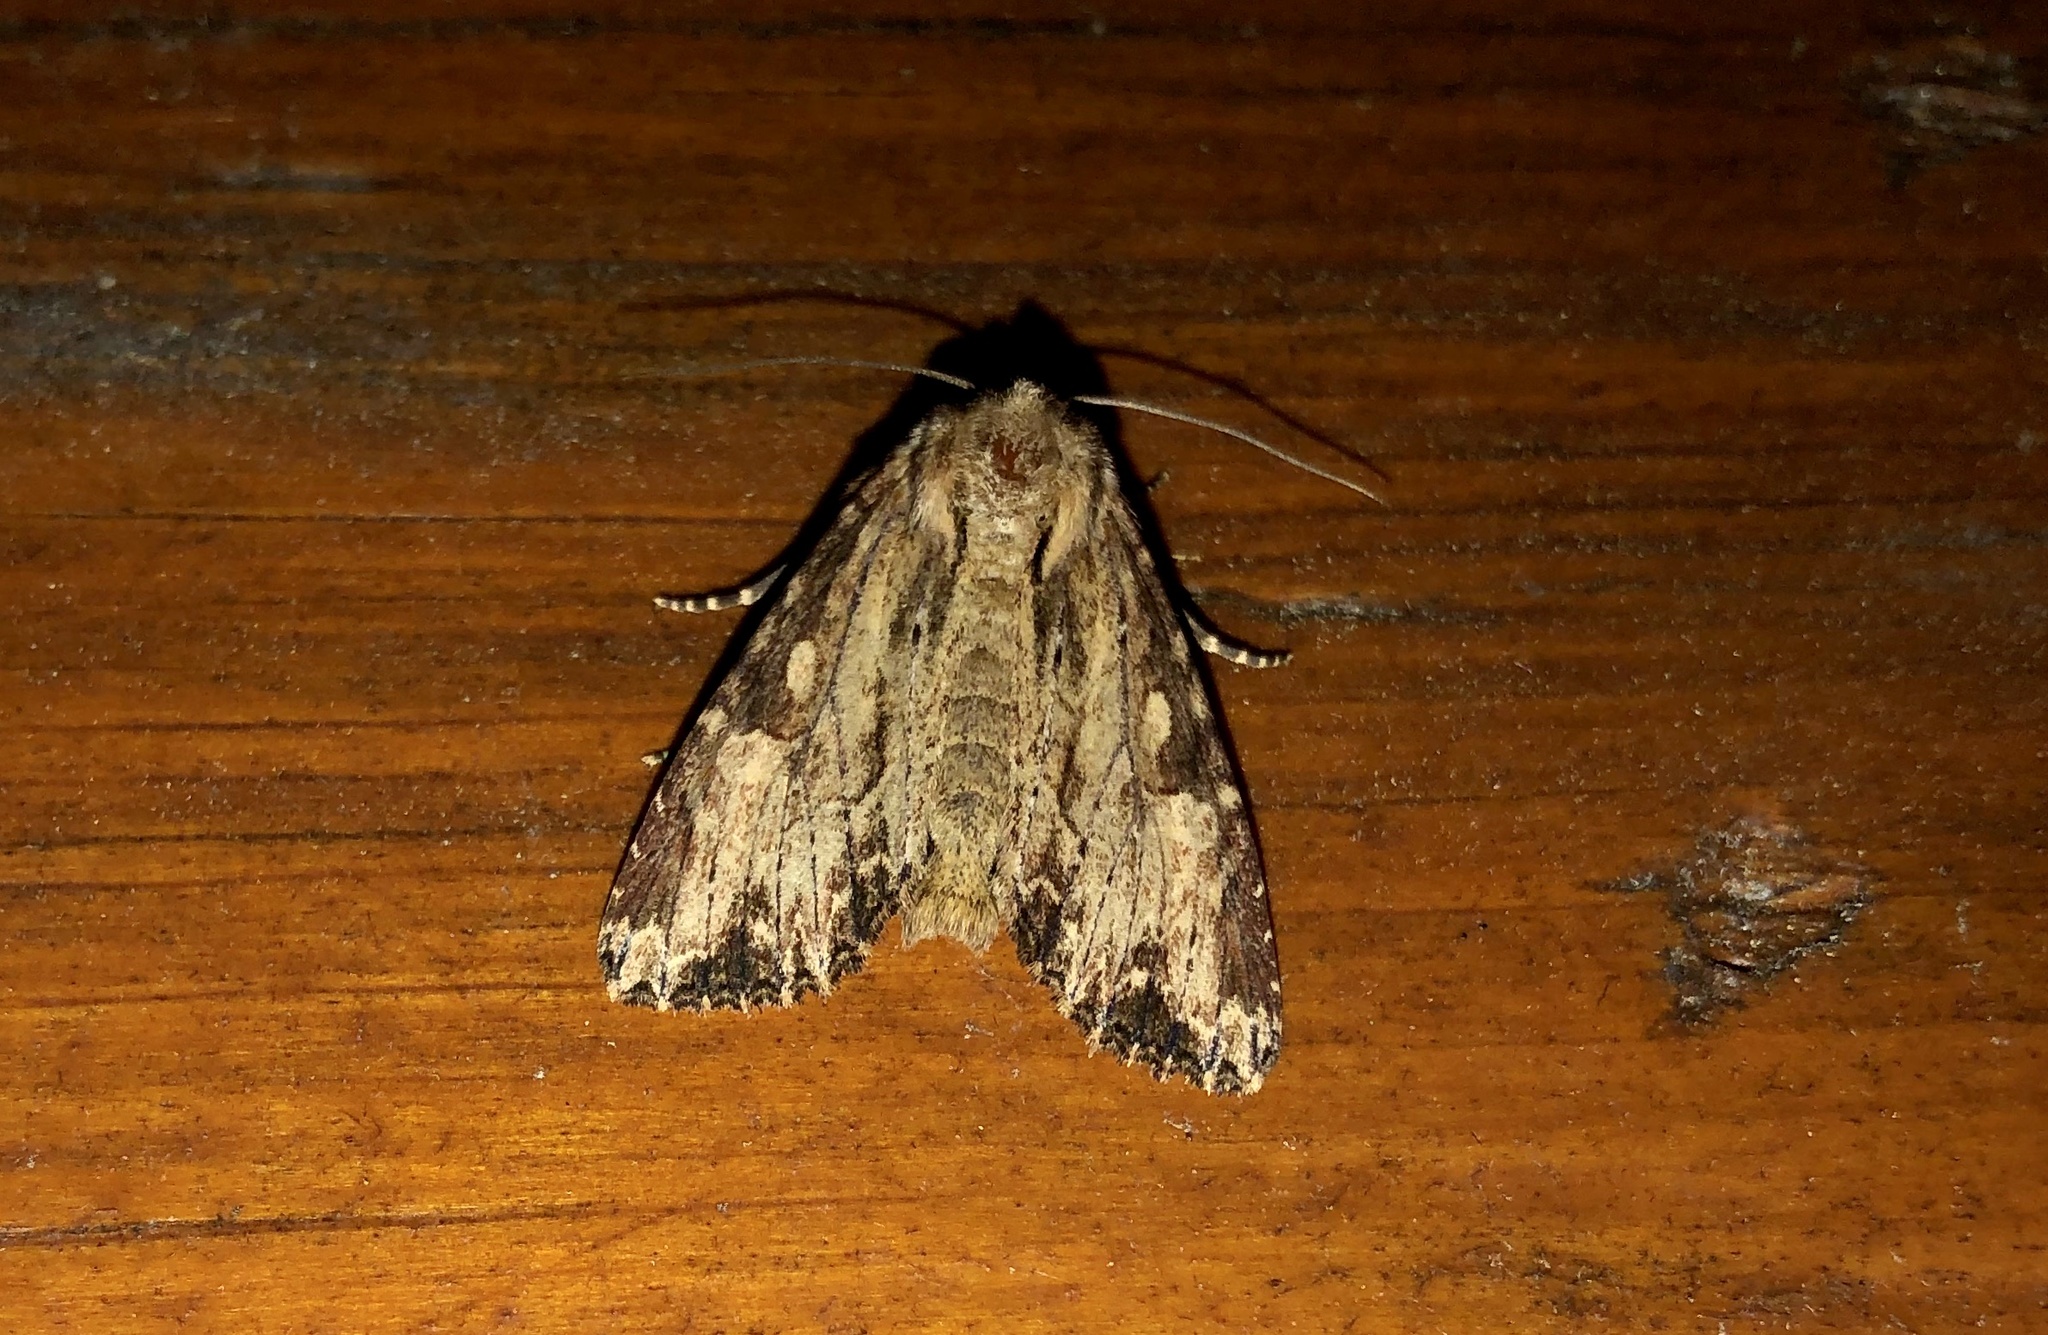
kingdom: Animalia
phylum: Arthropoda
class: Insecta
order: Lepidoptera
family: Noctuidae
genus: Apamea
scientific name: Apamea lignicolora
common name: Wood-colored apamea moth
